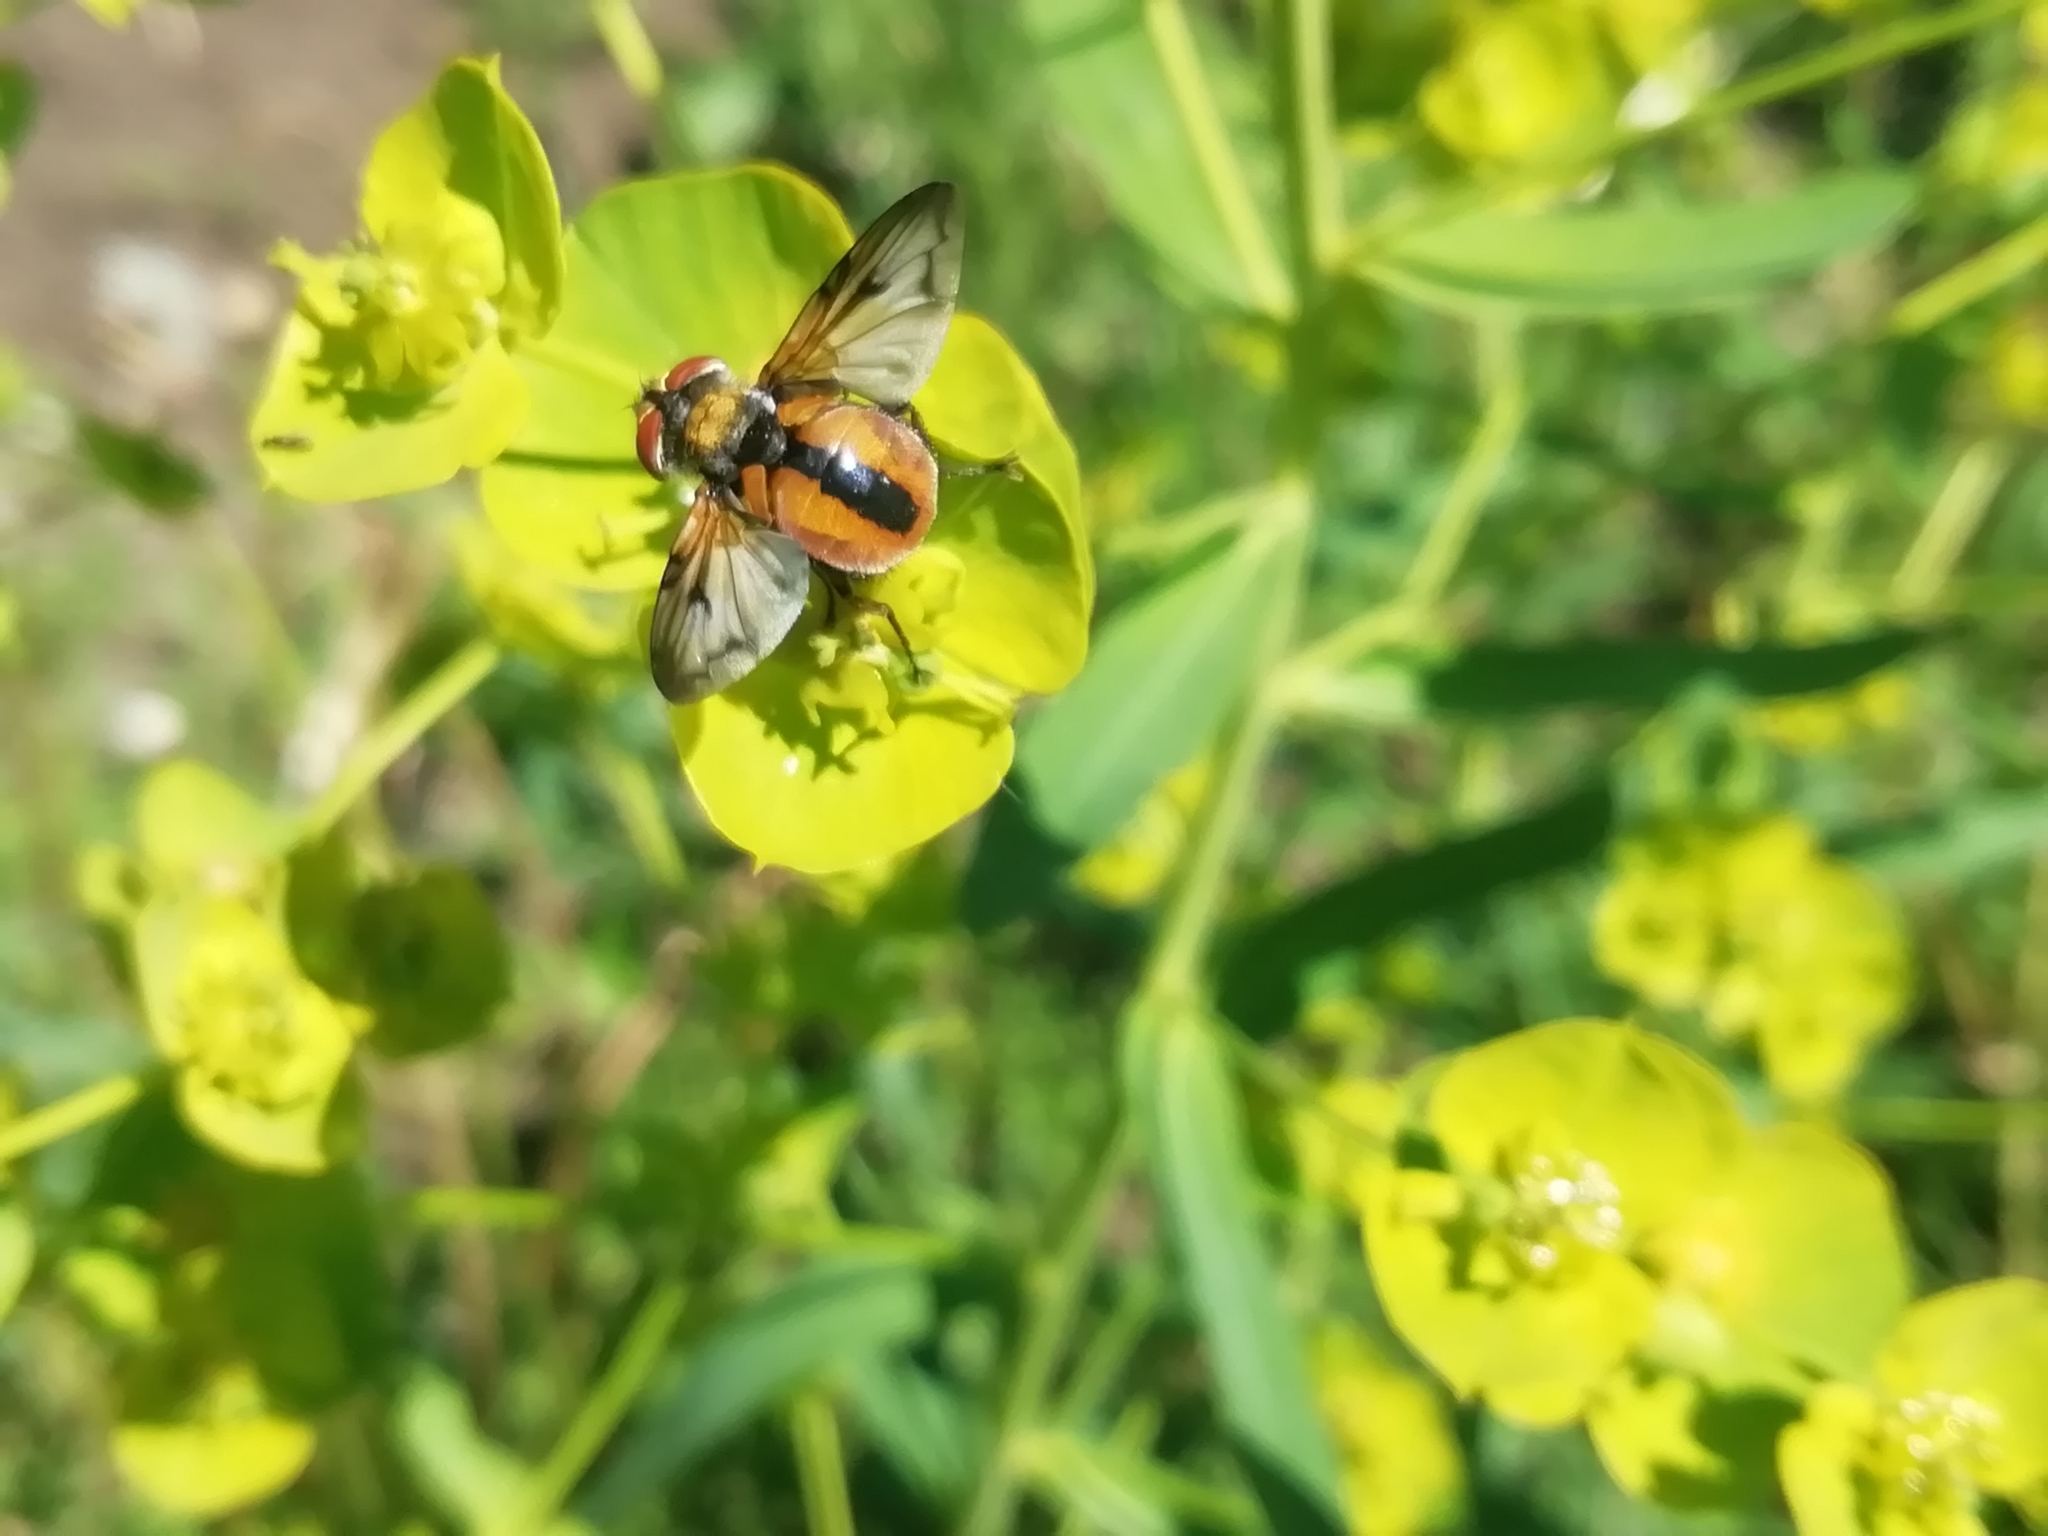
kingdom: Animalia
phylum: Arthropoda
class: Insecta
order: Diptera
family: Tachinidae
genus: Ectophasia
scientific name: Ectophasia crassipennis
